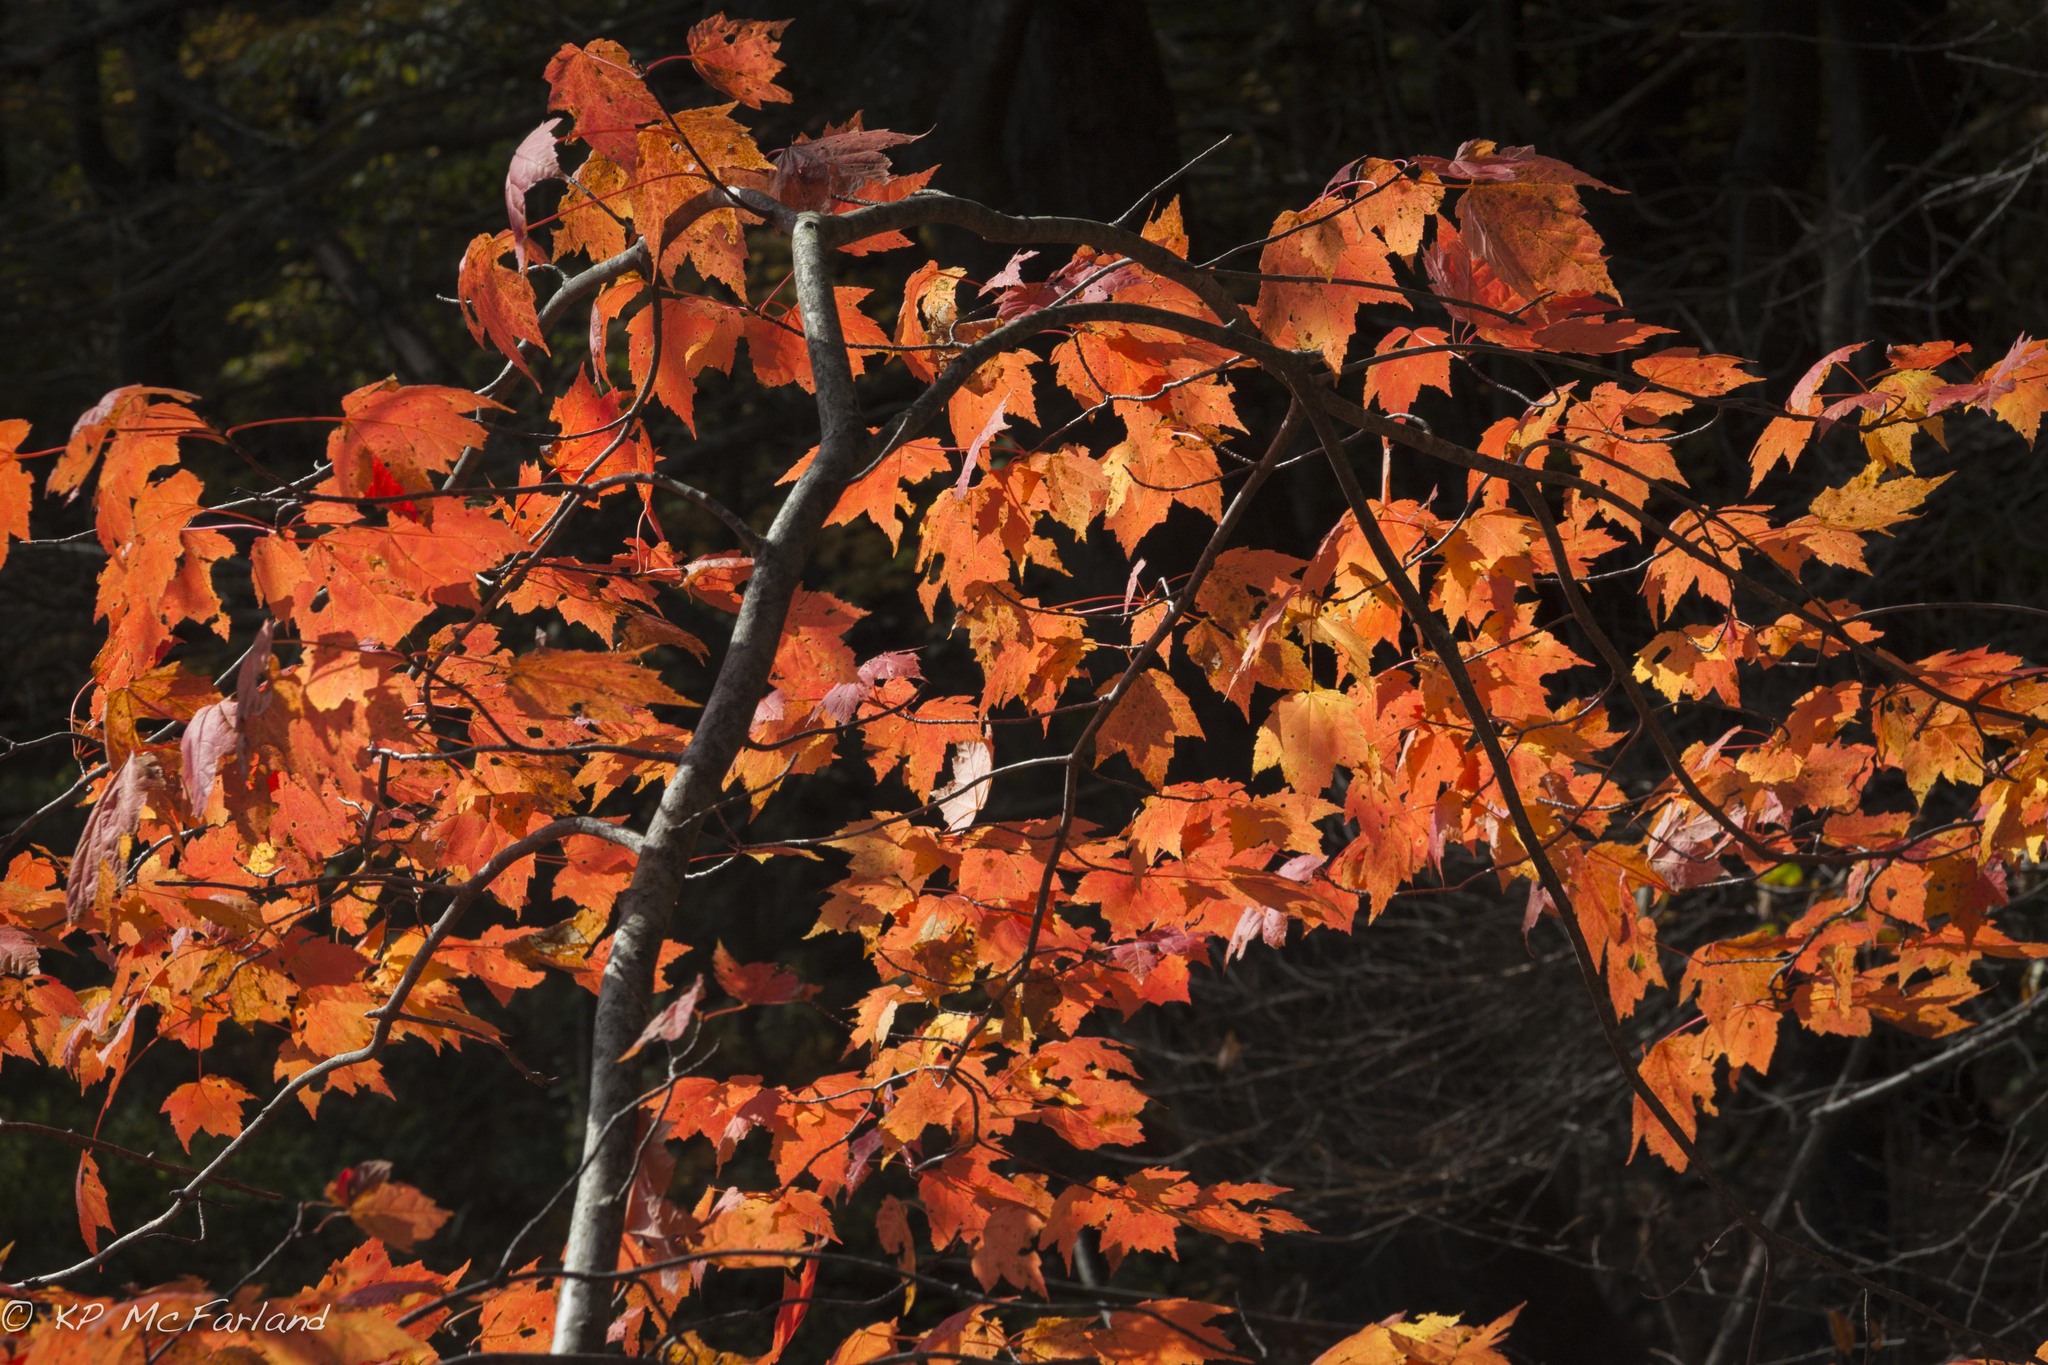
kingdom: Plantae
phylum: Tracheophyta
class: Magnoliopsida
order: Sapindales
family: Sapindaceae
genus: Acer
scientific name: Acer rubrum
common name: Red maple
